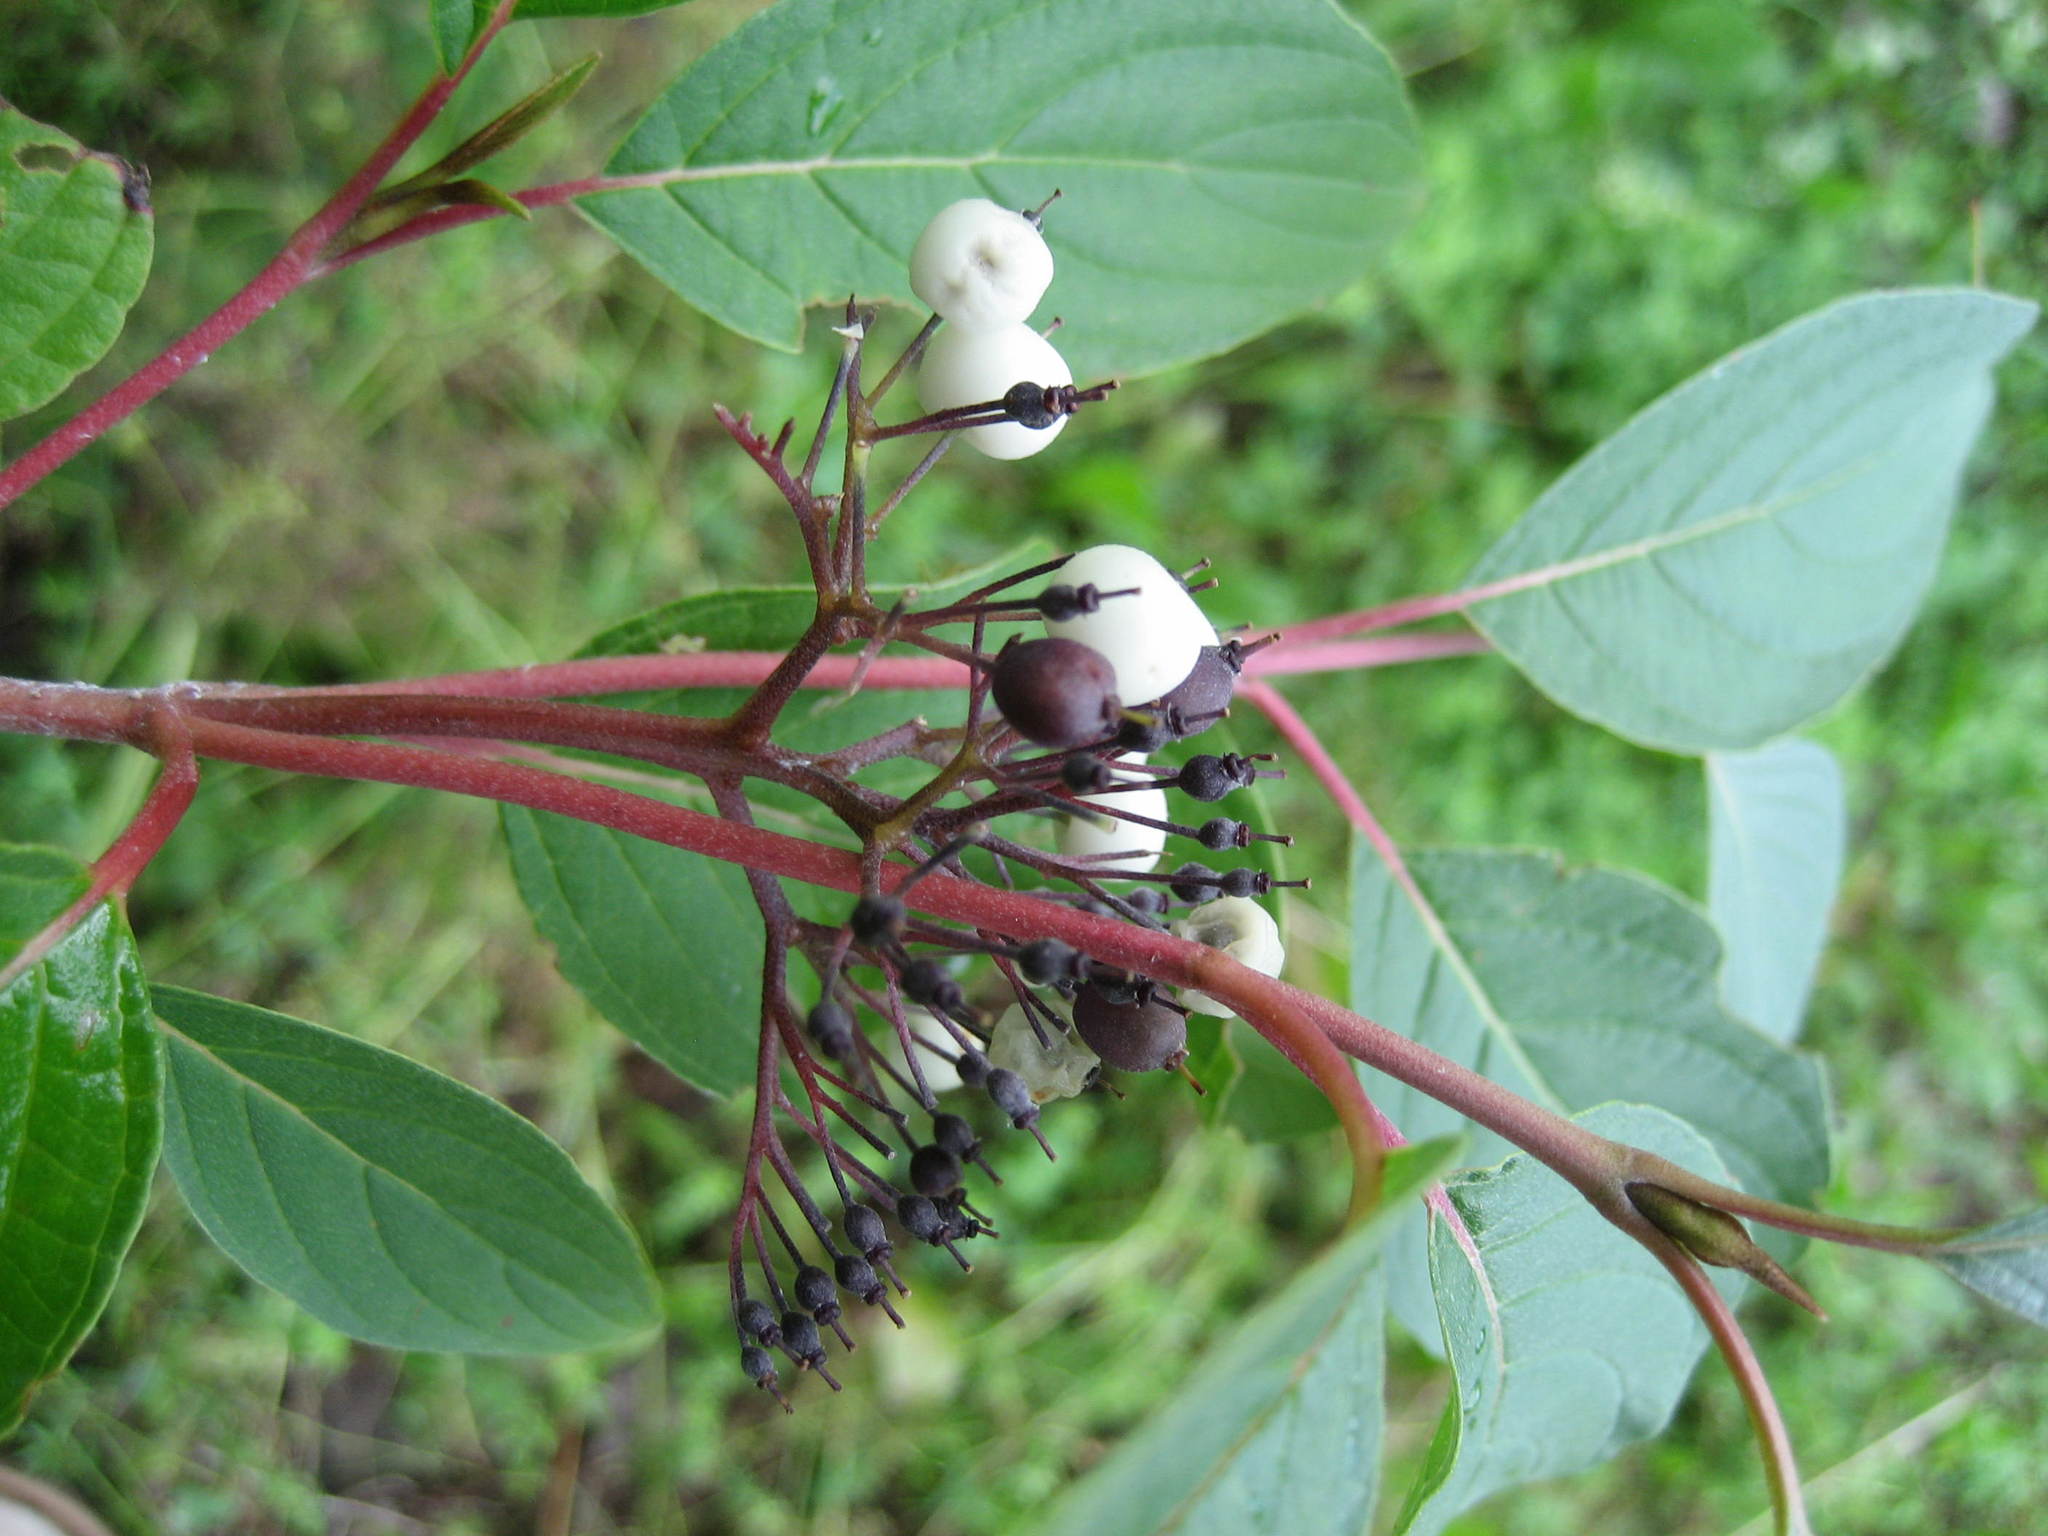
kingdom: Plantae
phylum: Tracheophyta
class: Magnoliopsida
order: Cornales
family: Cornaceae
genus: Cornus
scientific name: Cornus sericea
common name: Red-osier dogwood
